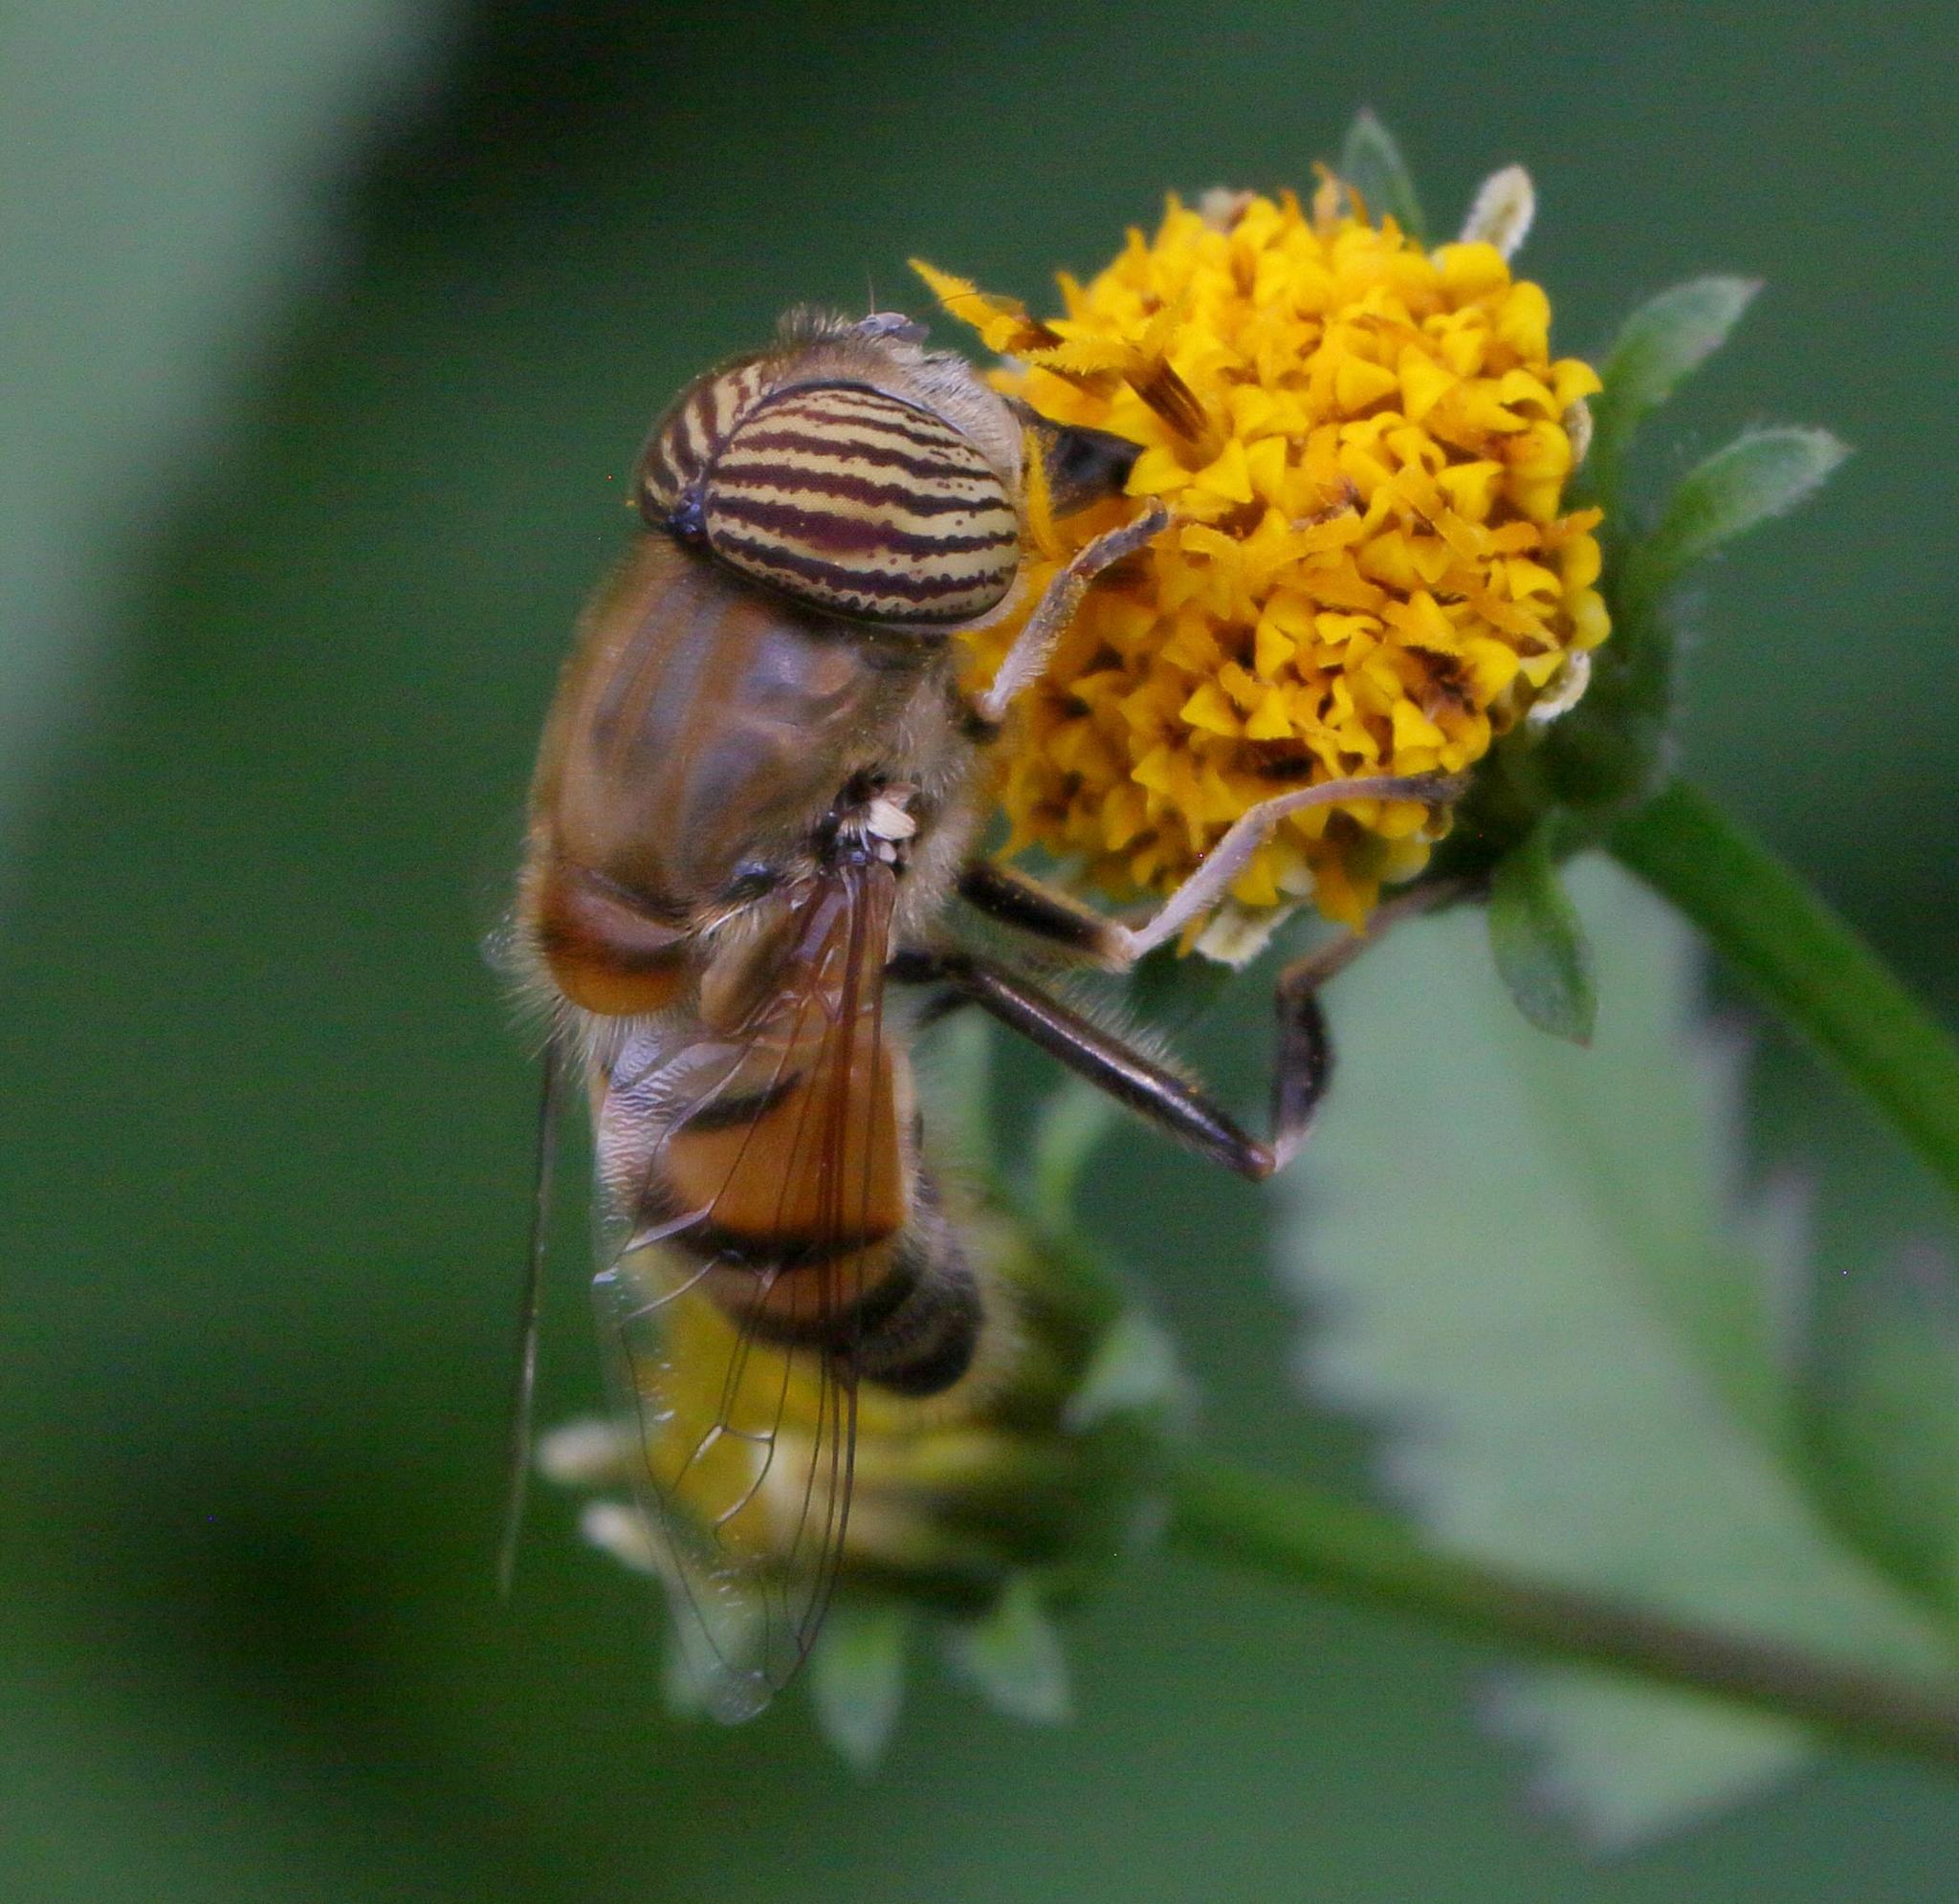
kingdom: Animalia
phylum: Arthropoda
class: Insecta
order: Diptera
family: Syrphidae
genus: Eristalinus
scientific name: Eristalinus taeniops
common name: Syrphid fly
